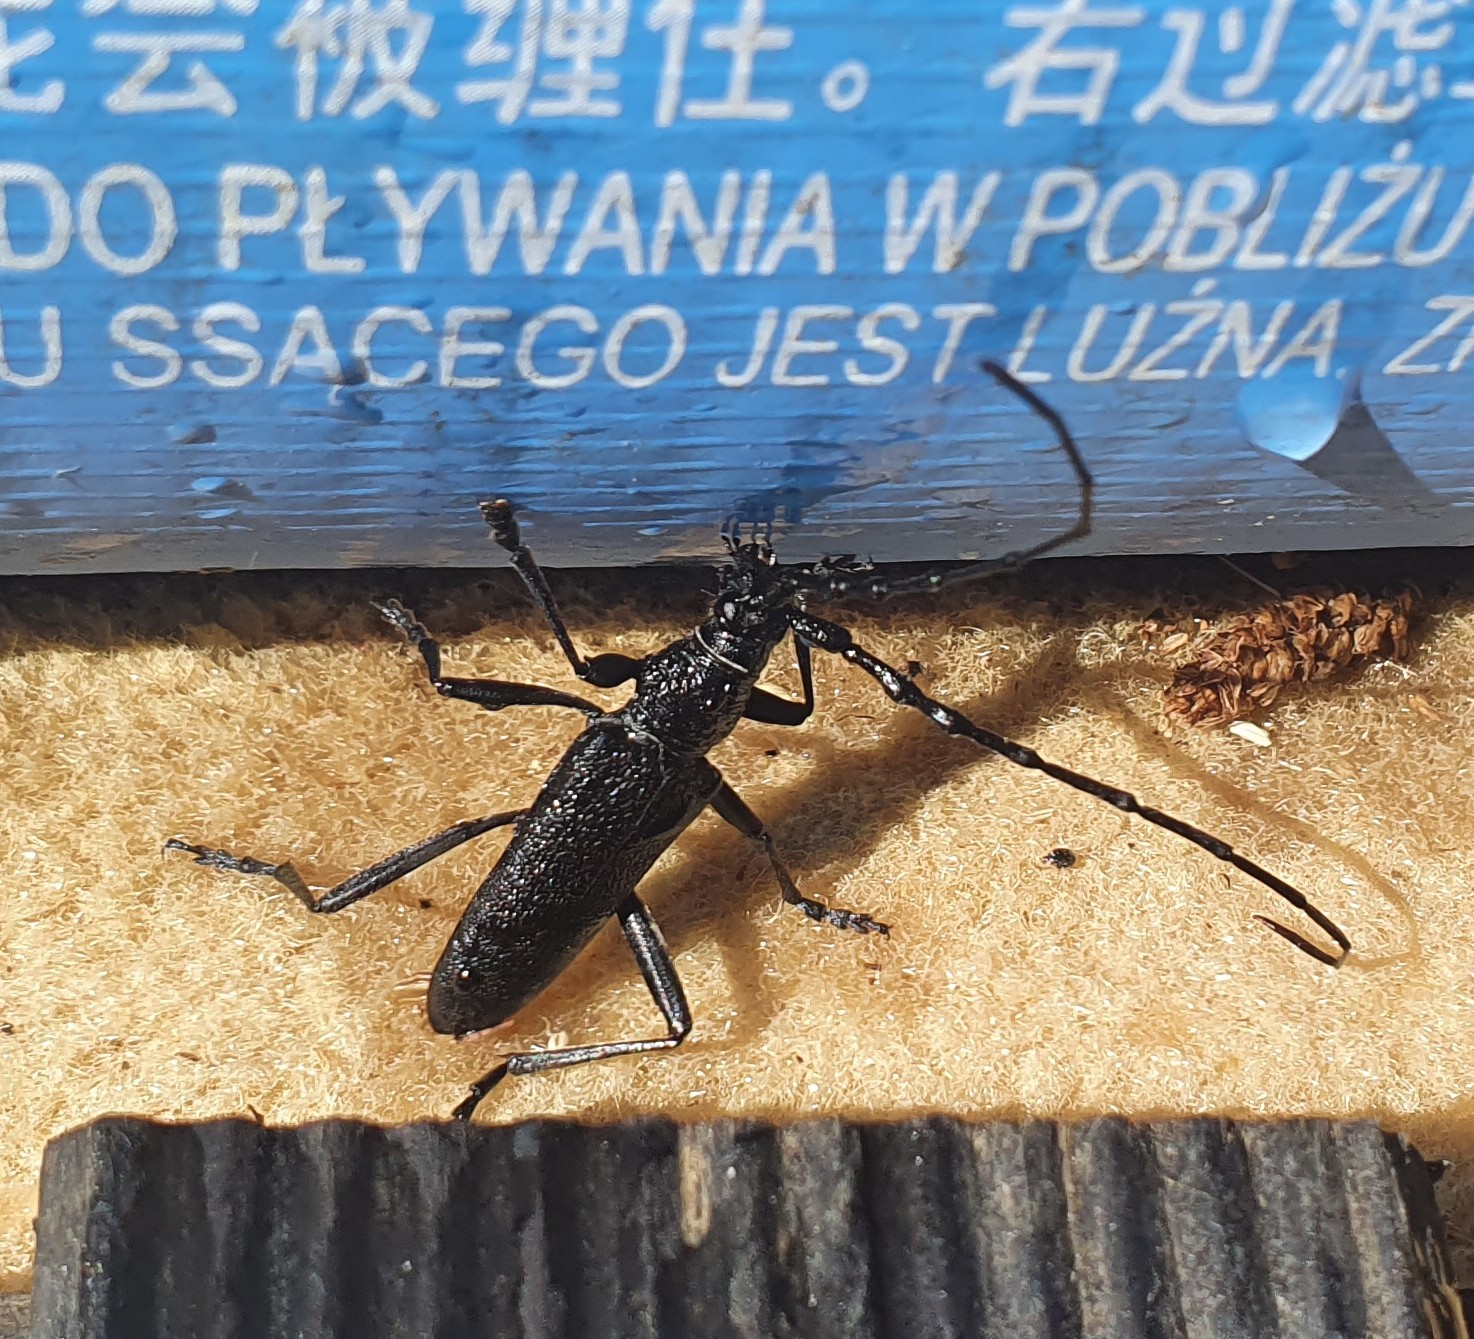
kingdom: Animalia
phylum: Arthropoda
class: Insecta
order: Coleoptera
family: Cerambycidae
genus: Cerambyx
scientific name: Cerambyx scopolii
